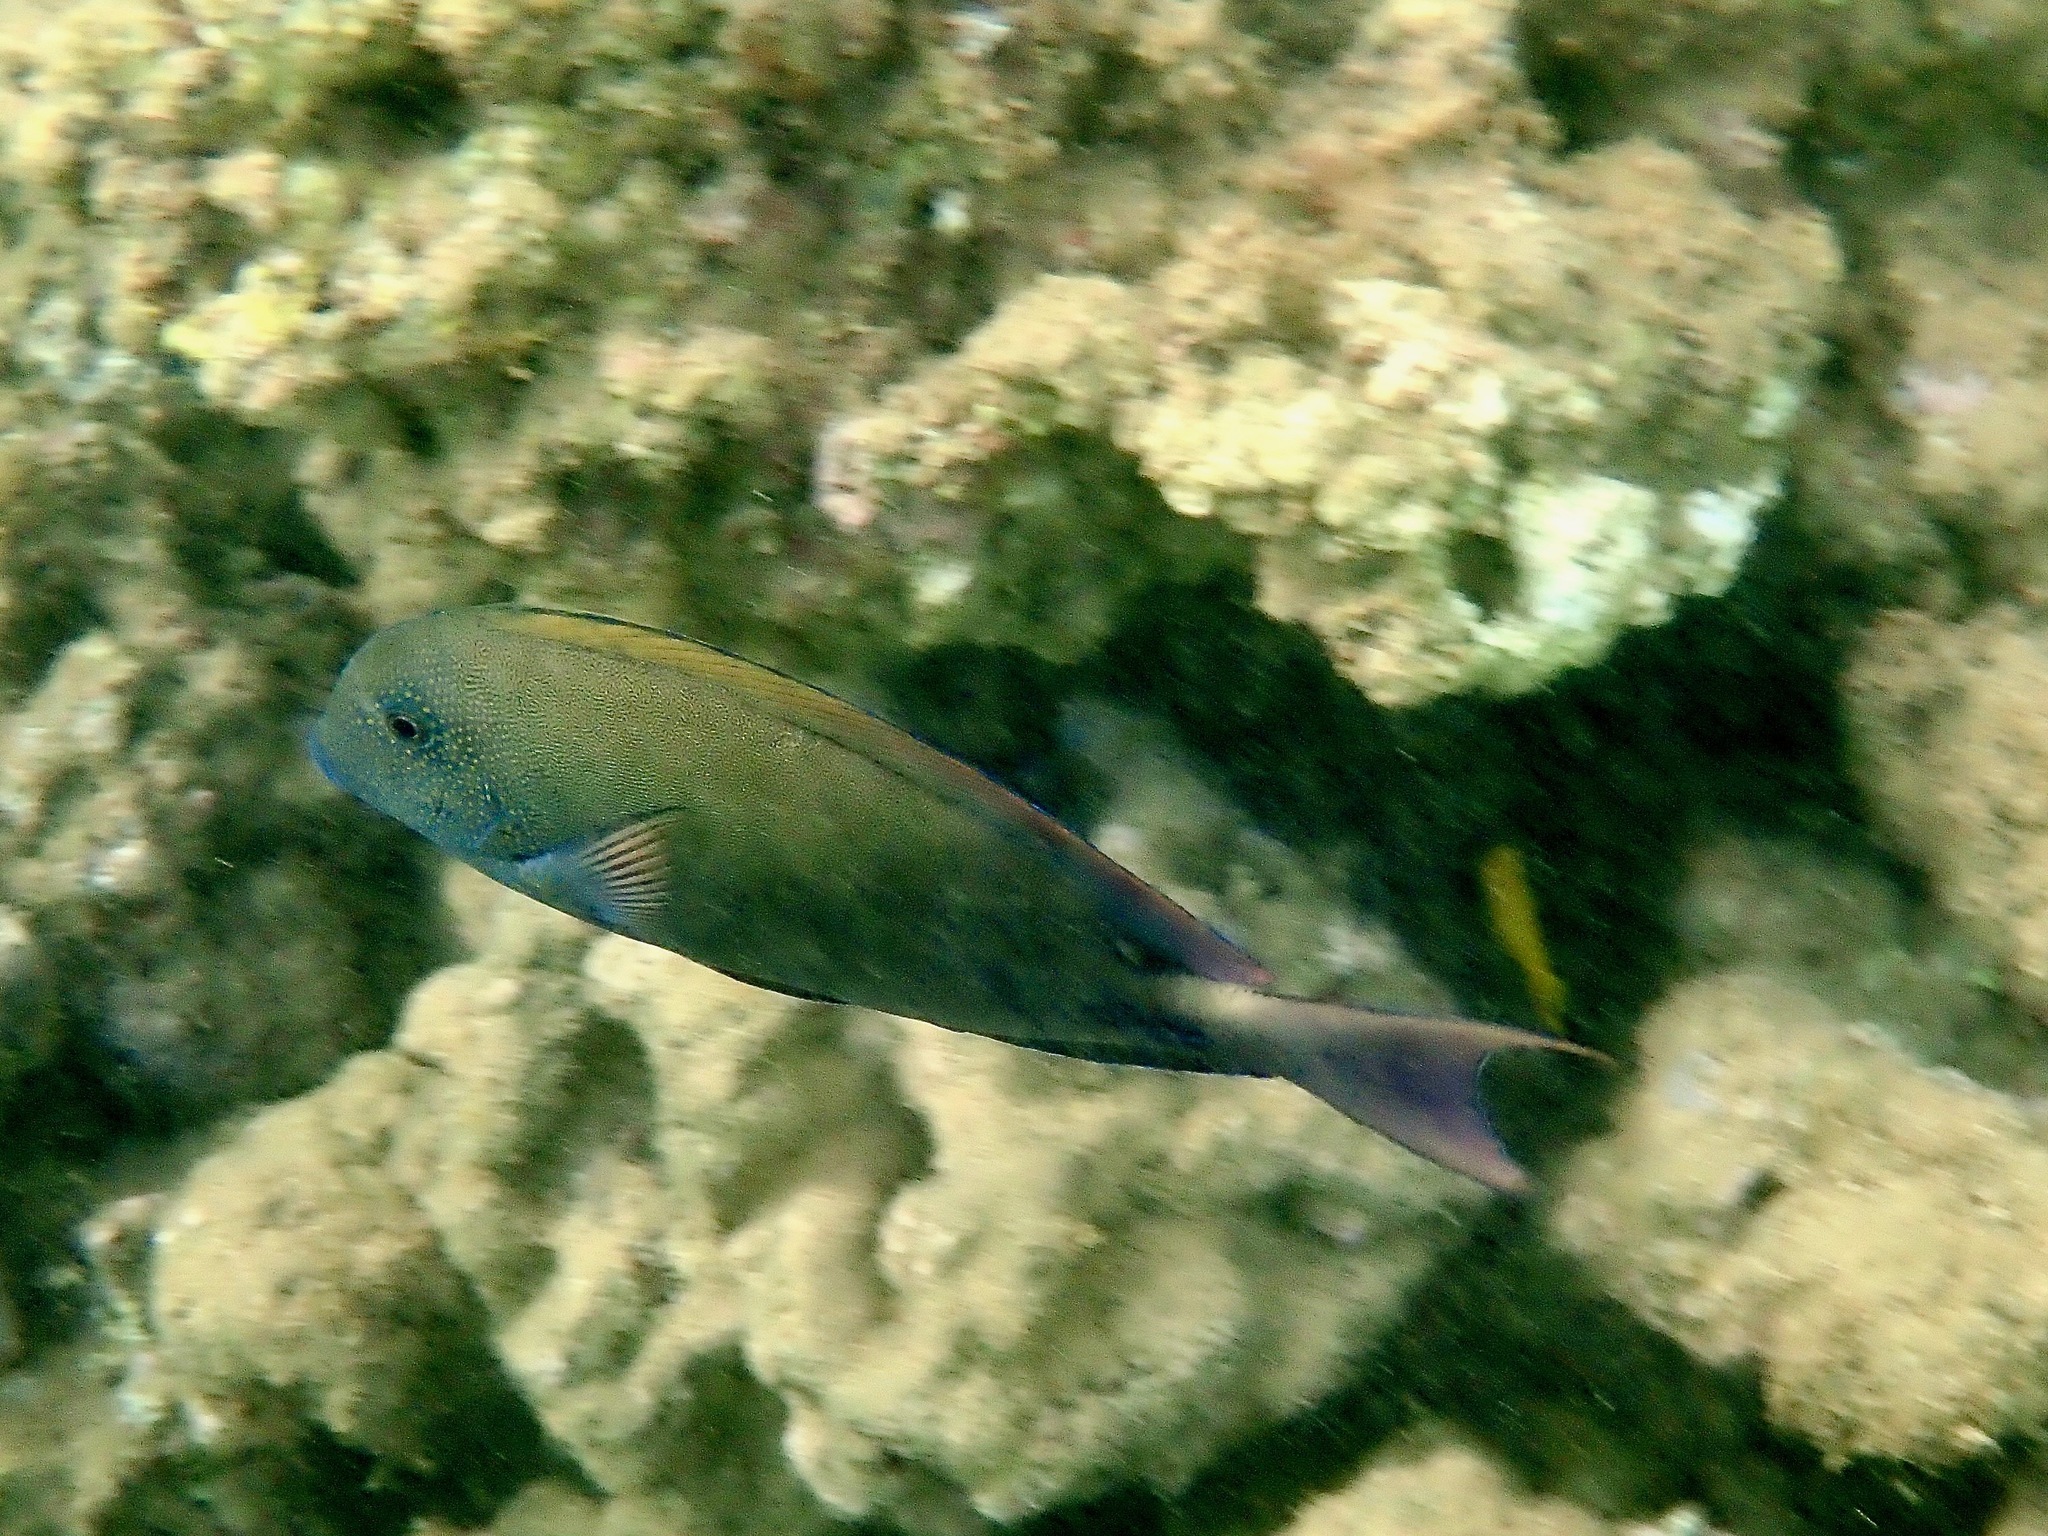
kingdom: Animalia
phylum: Chordata
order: Perciformes
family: Acanthuridae
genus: Acanthurus
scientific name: Acanthurus nigrofuscus
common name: Blackspot surgeonfish
